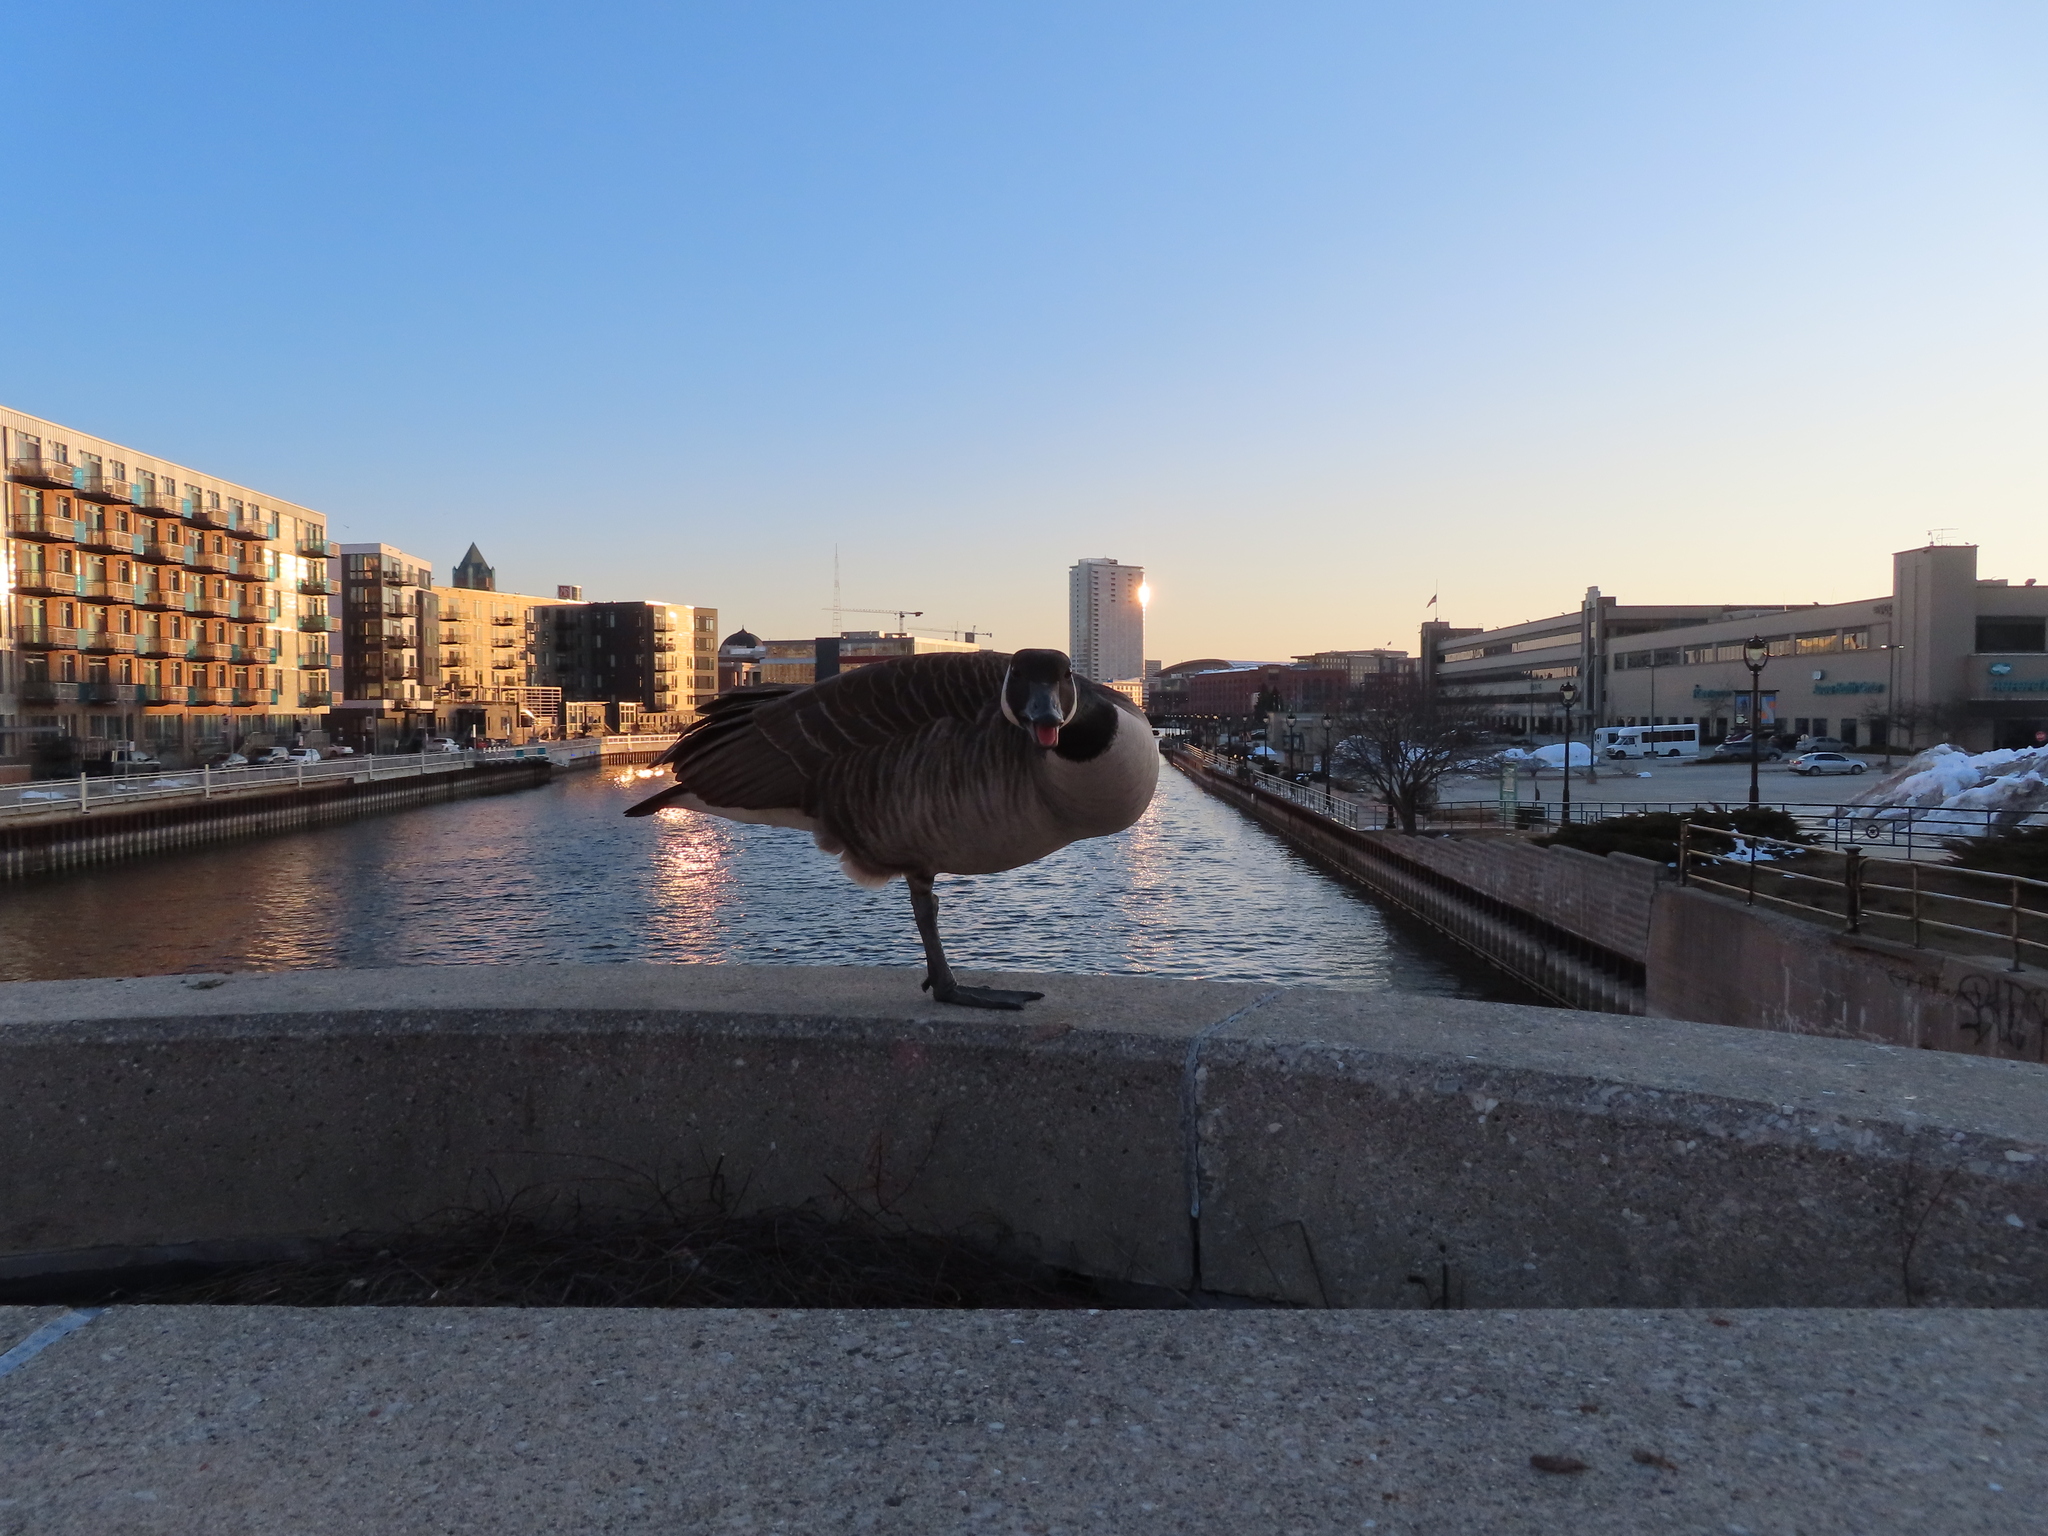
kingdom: Animalia
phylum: Chordata
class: Aves
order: Anseriformes
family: Anatidae
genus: Branta
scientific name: Branta canadensis
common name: Canada goose
